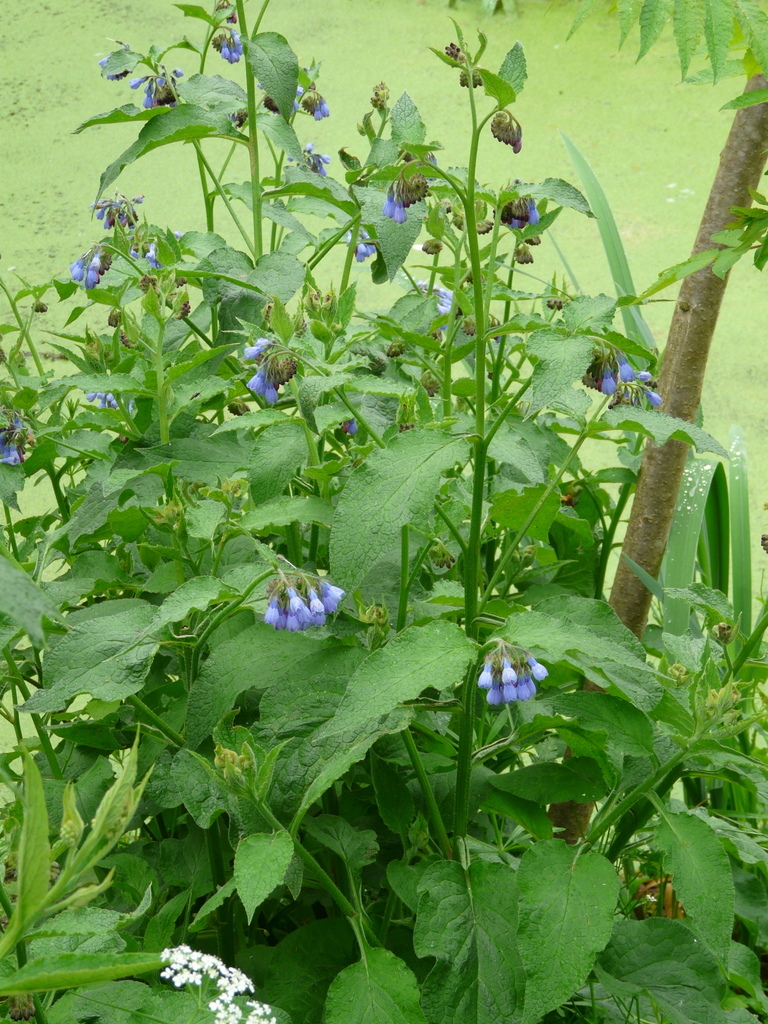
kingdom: Plantae
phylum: Tracheophyta
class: Magnoliopsida
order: Boraginales
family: Boraginaceae
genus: Symphytum
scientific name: Symphytum uplandicum
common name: Russian comfrey
